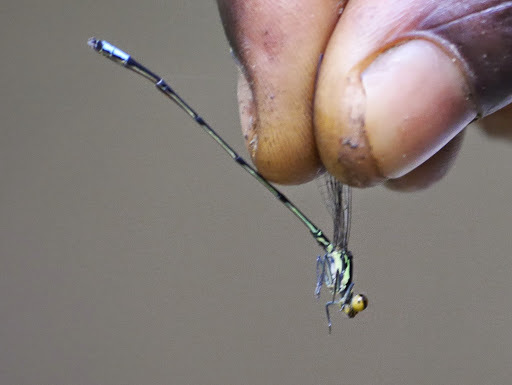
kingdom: Animalia
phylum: Arthropoda
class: Insecta
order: Odonata
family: Coenagrionidae
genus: Pseudagrion
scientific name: Pseudagrion hageni
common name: Painted sprite
